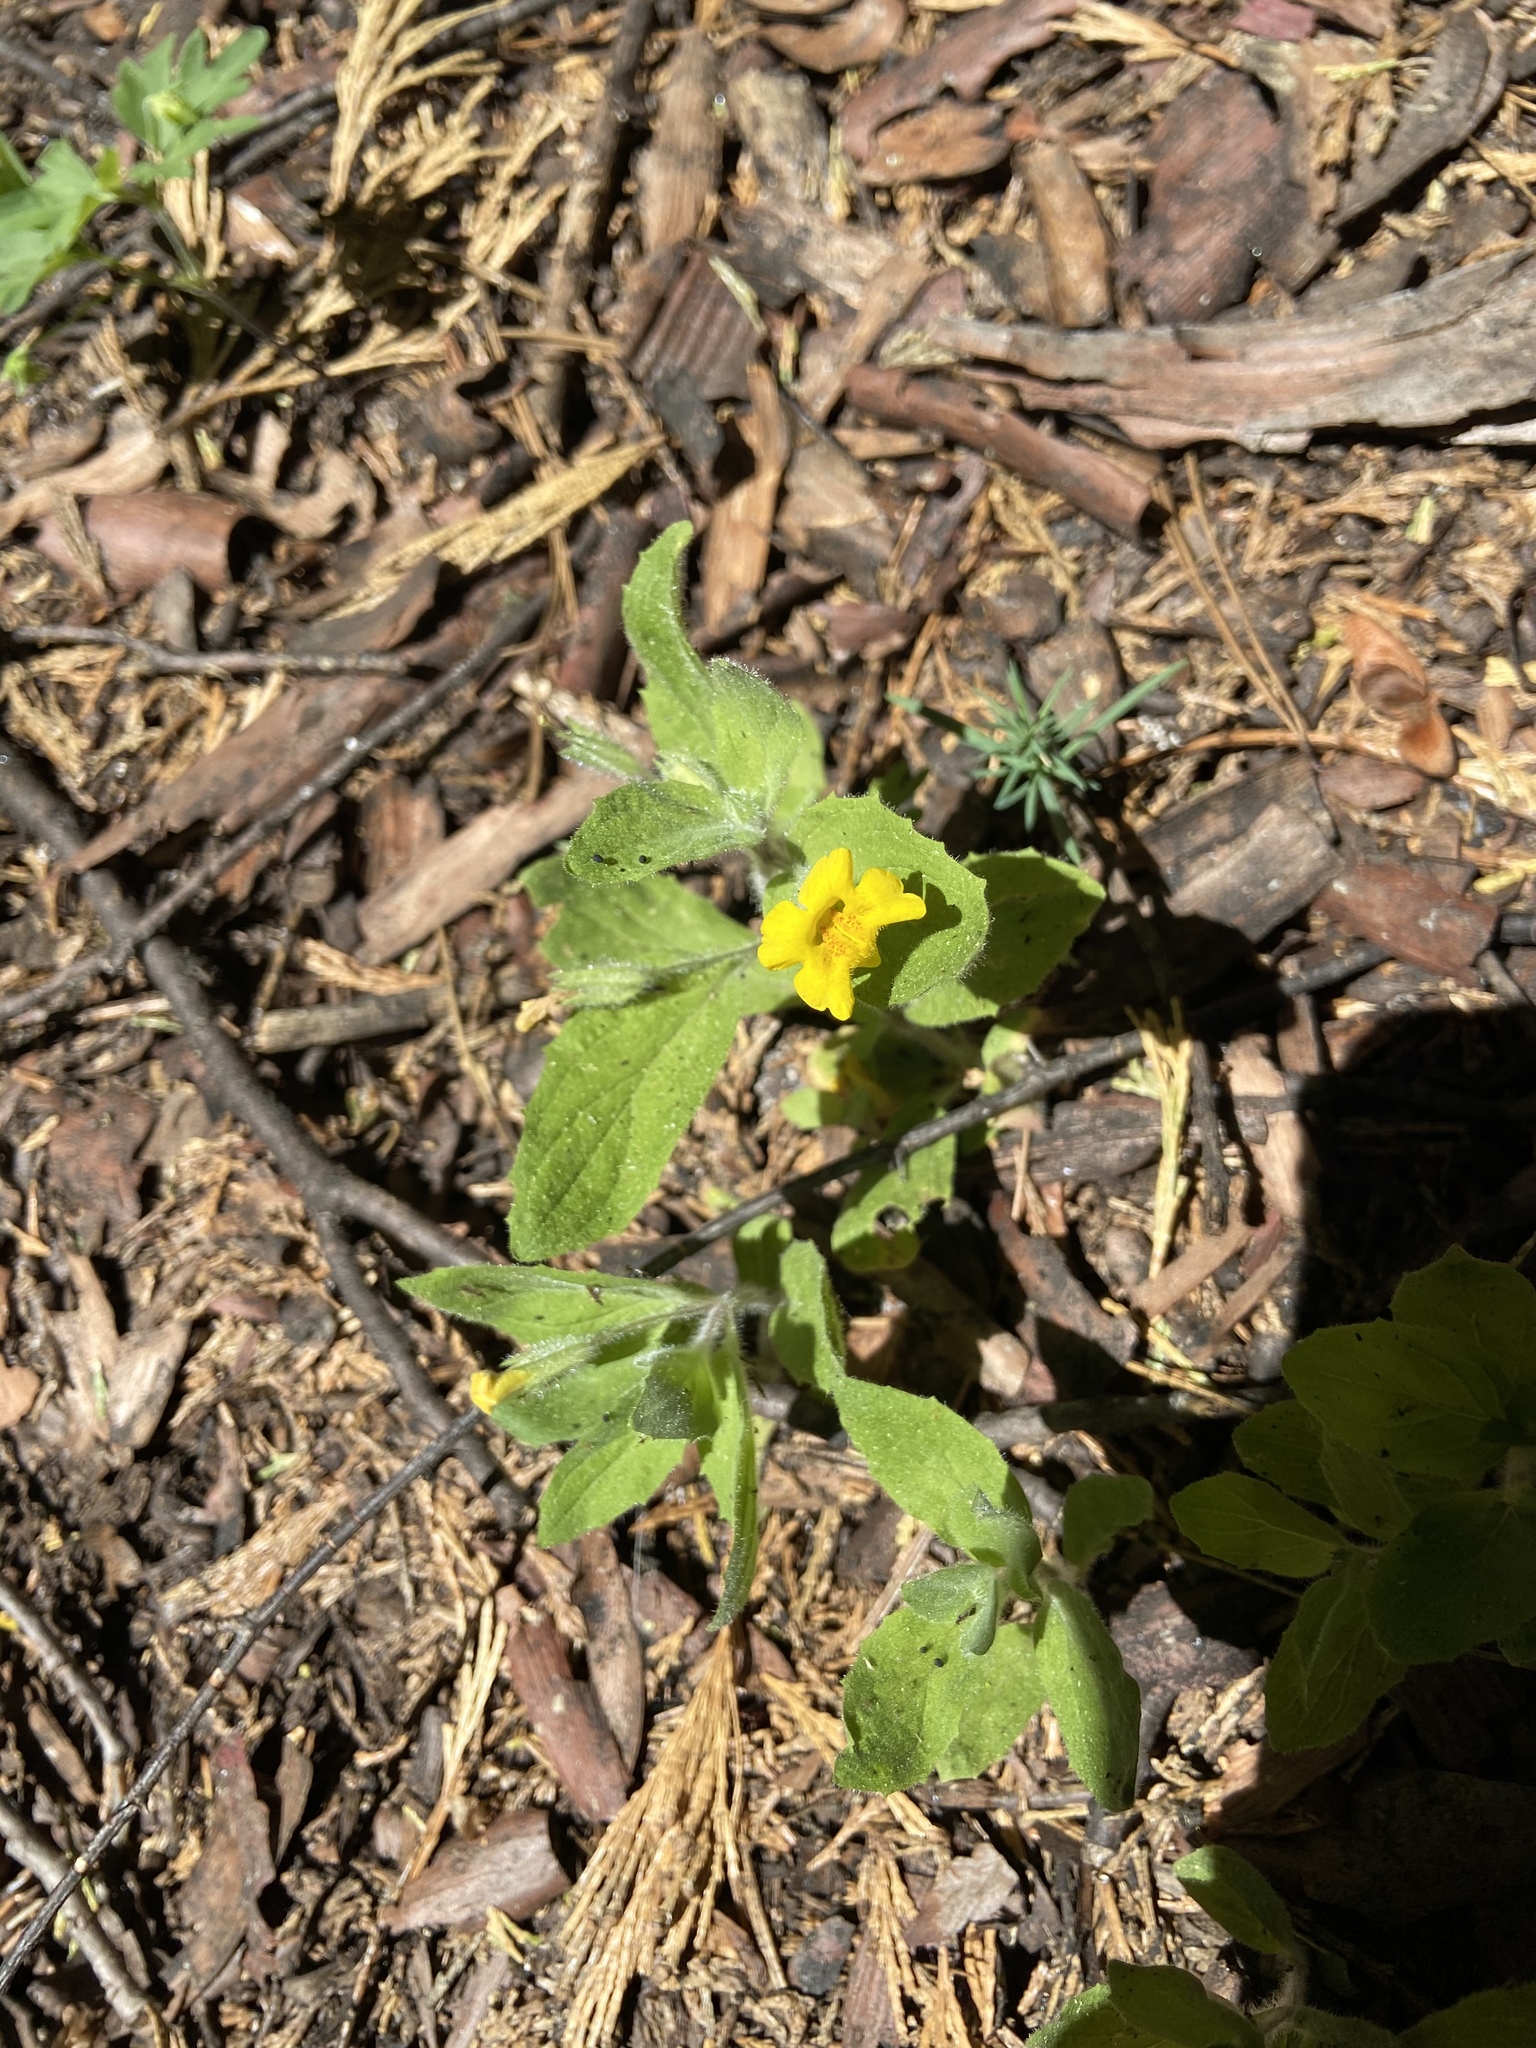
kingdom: Plantae
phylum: Tracheophyta
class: Magnoliopsida
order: Lamiales
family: Phrymaceae
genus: Erythranthe
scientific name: Erythranthe moschata
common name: Muskflower
